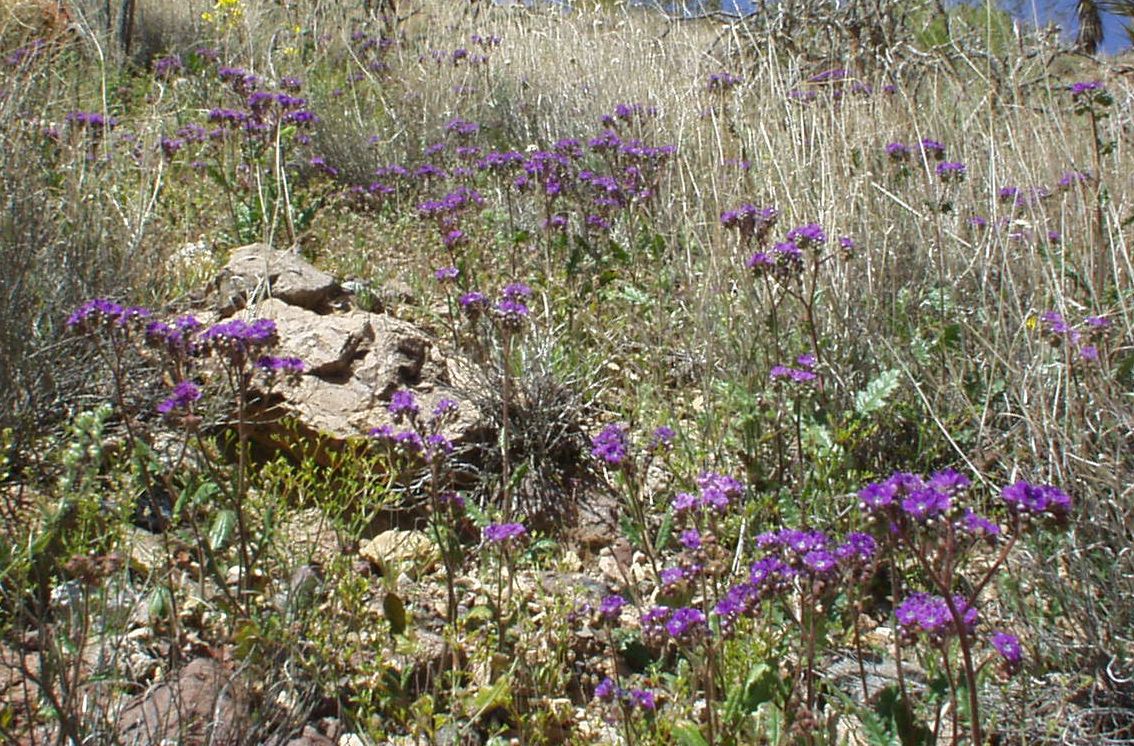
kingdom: Plantae
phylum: Tracheophyta
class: Magnoliopsida
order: Boraginales
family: Hydrophyllaceae
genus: Phacelia
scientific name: Phacelia crenulata
